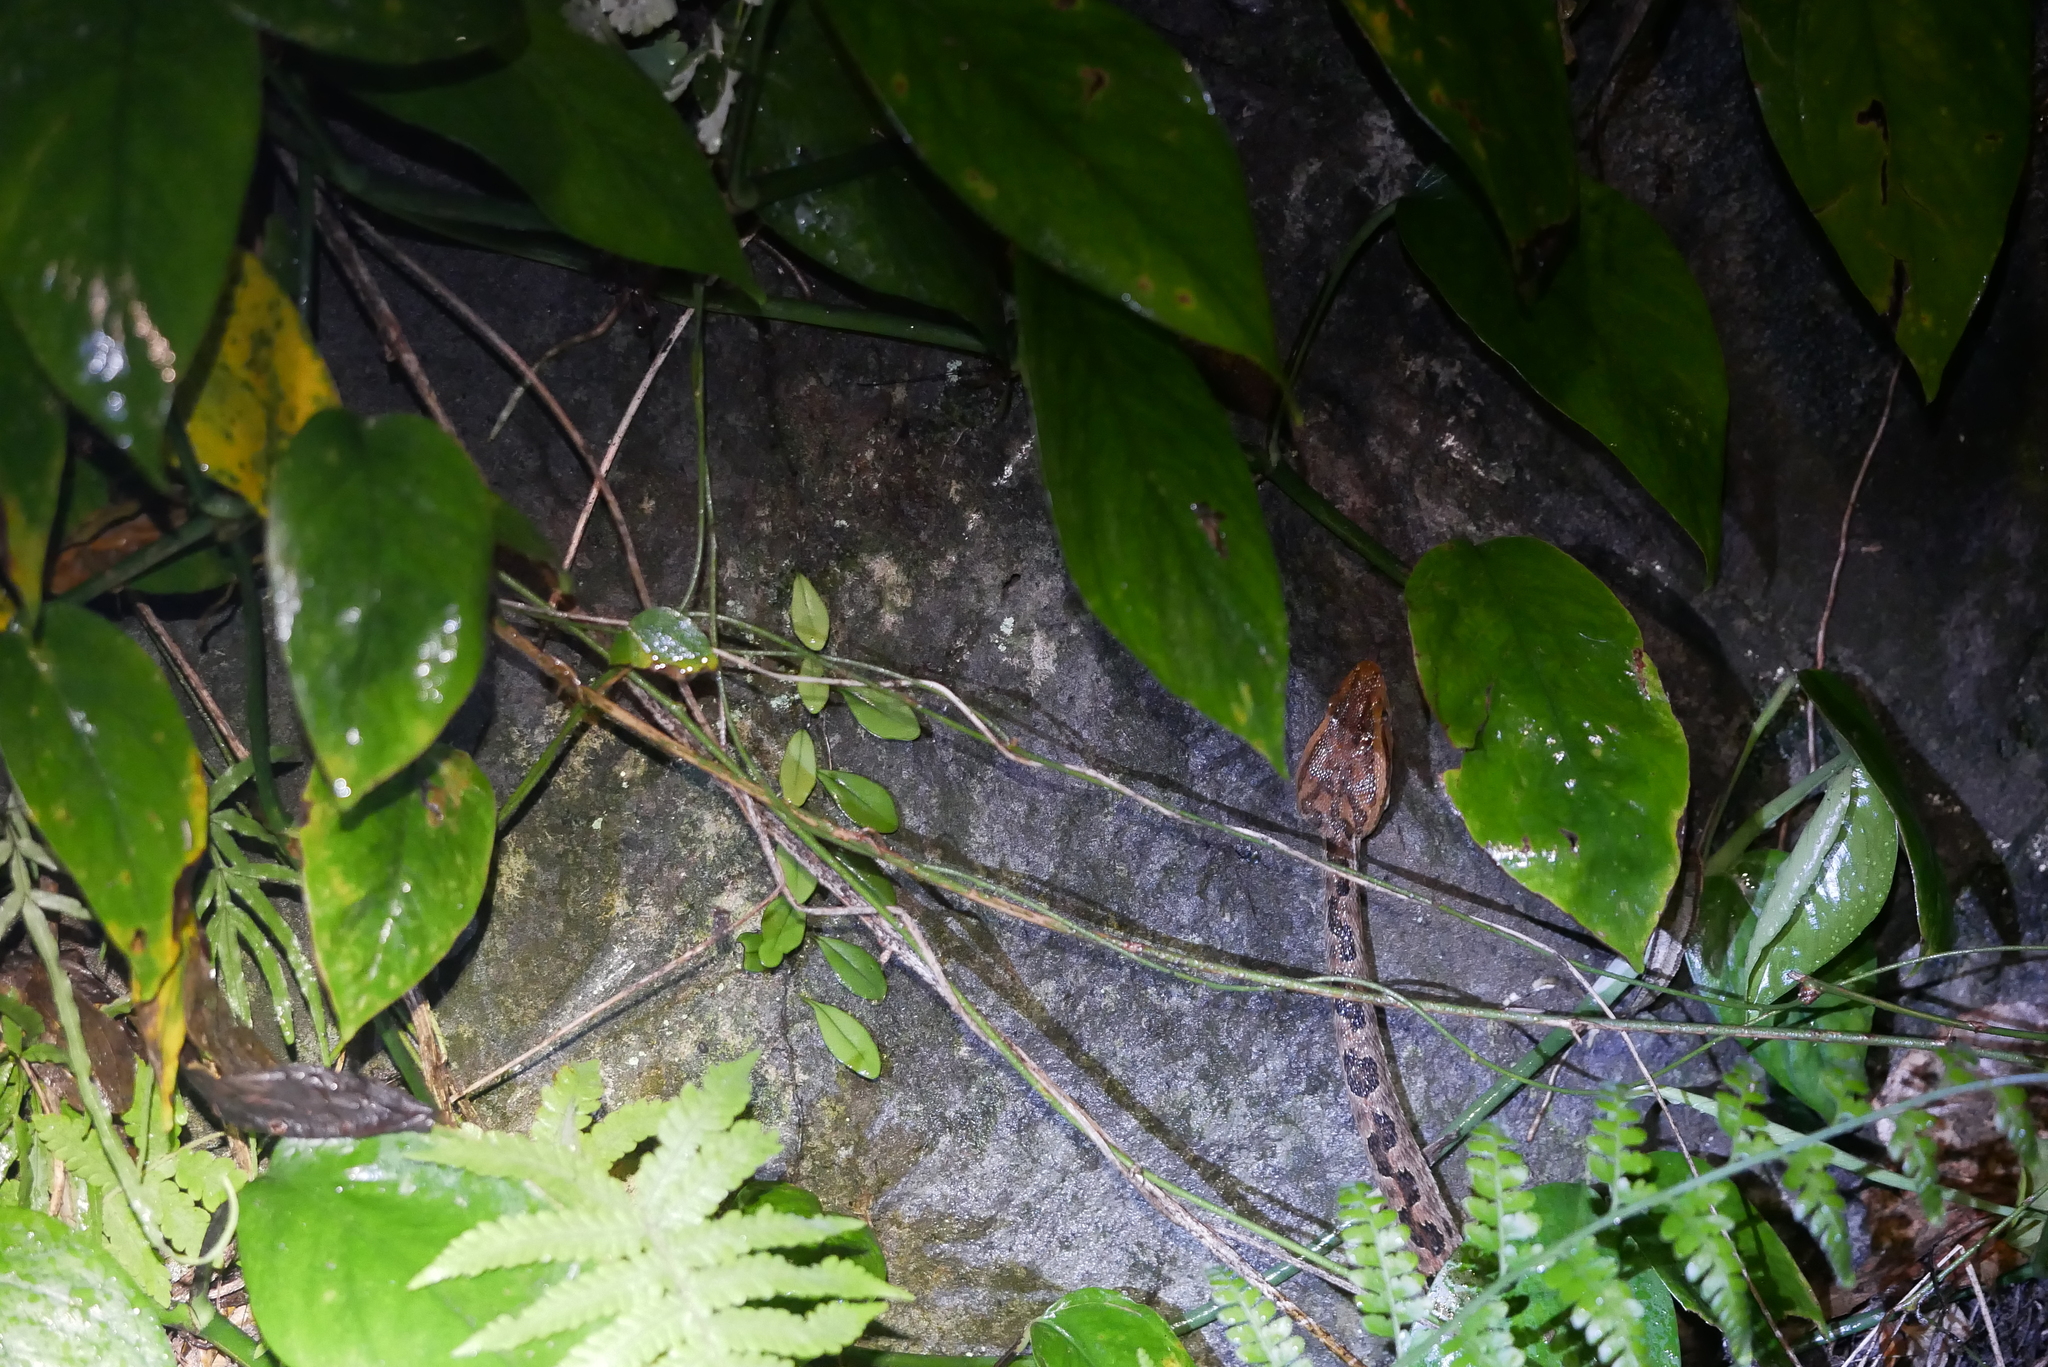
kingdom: Animalia
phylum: Chordata
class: Squamata
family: Viperidae
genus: Protobothrops
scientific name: Protobothrops mucrosquamatus
